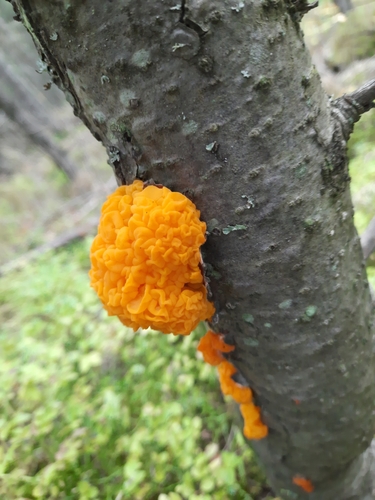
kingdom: Fungi
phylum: Basidiomycota
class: Tremellomycetes
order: Tremellales
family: Tremellaceae
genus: Tremella
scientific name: Tremella mesenterica
